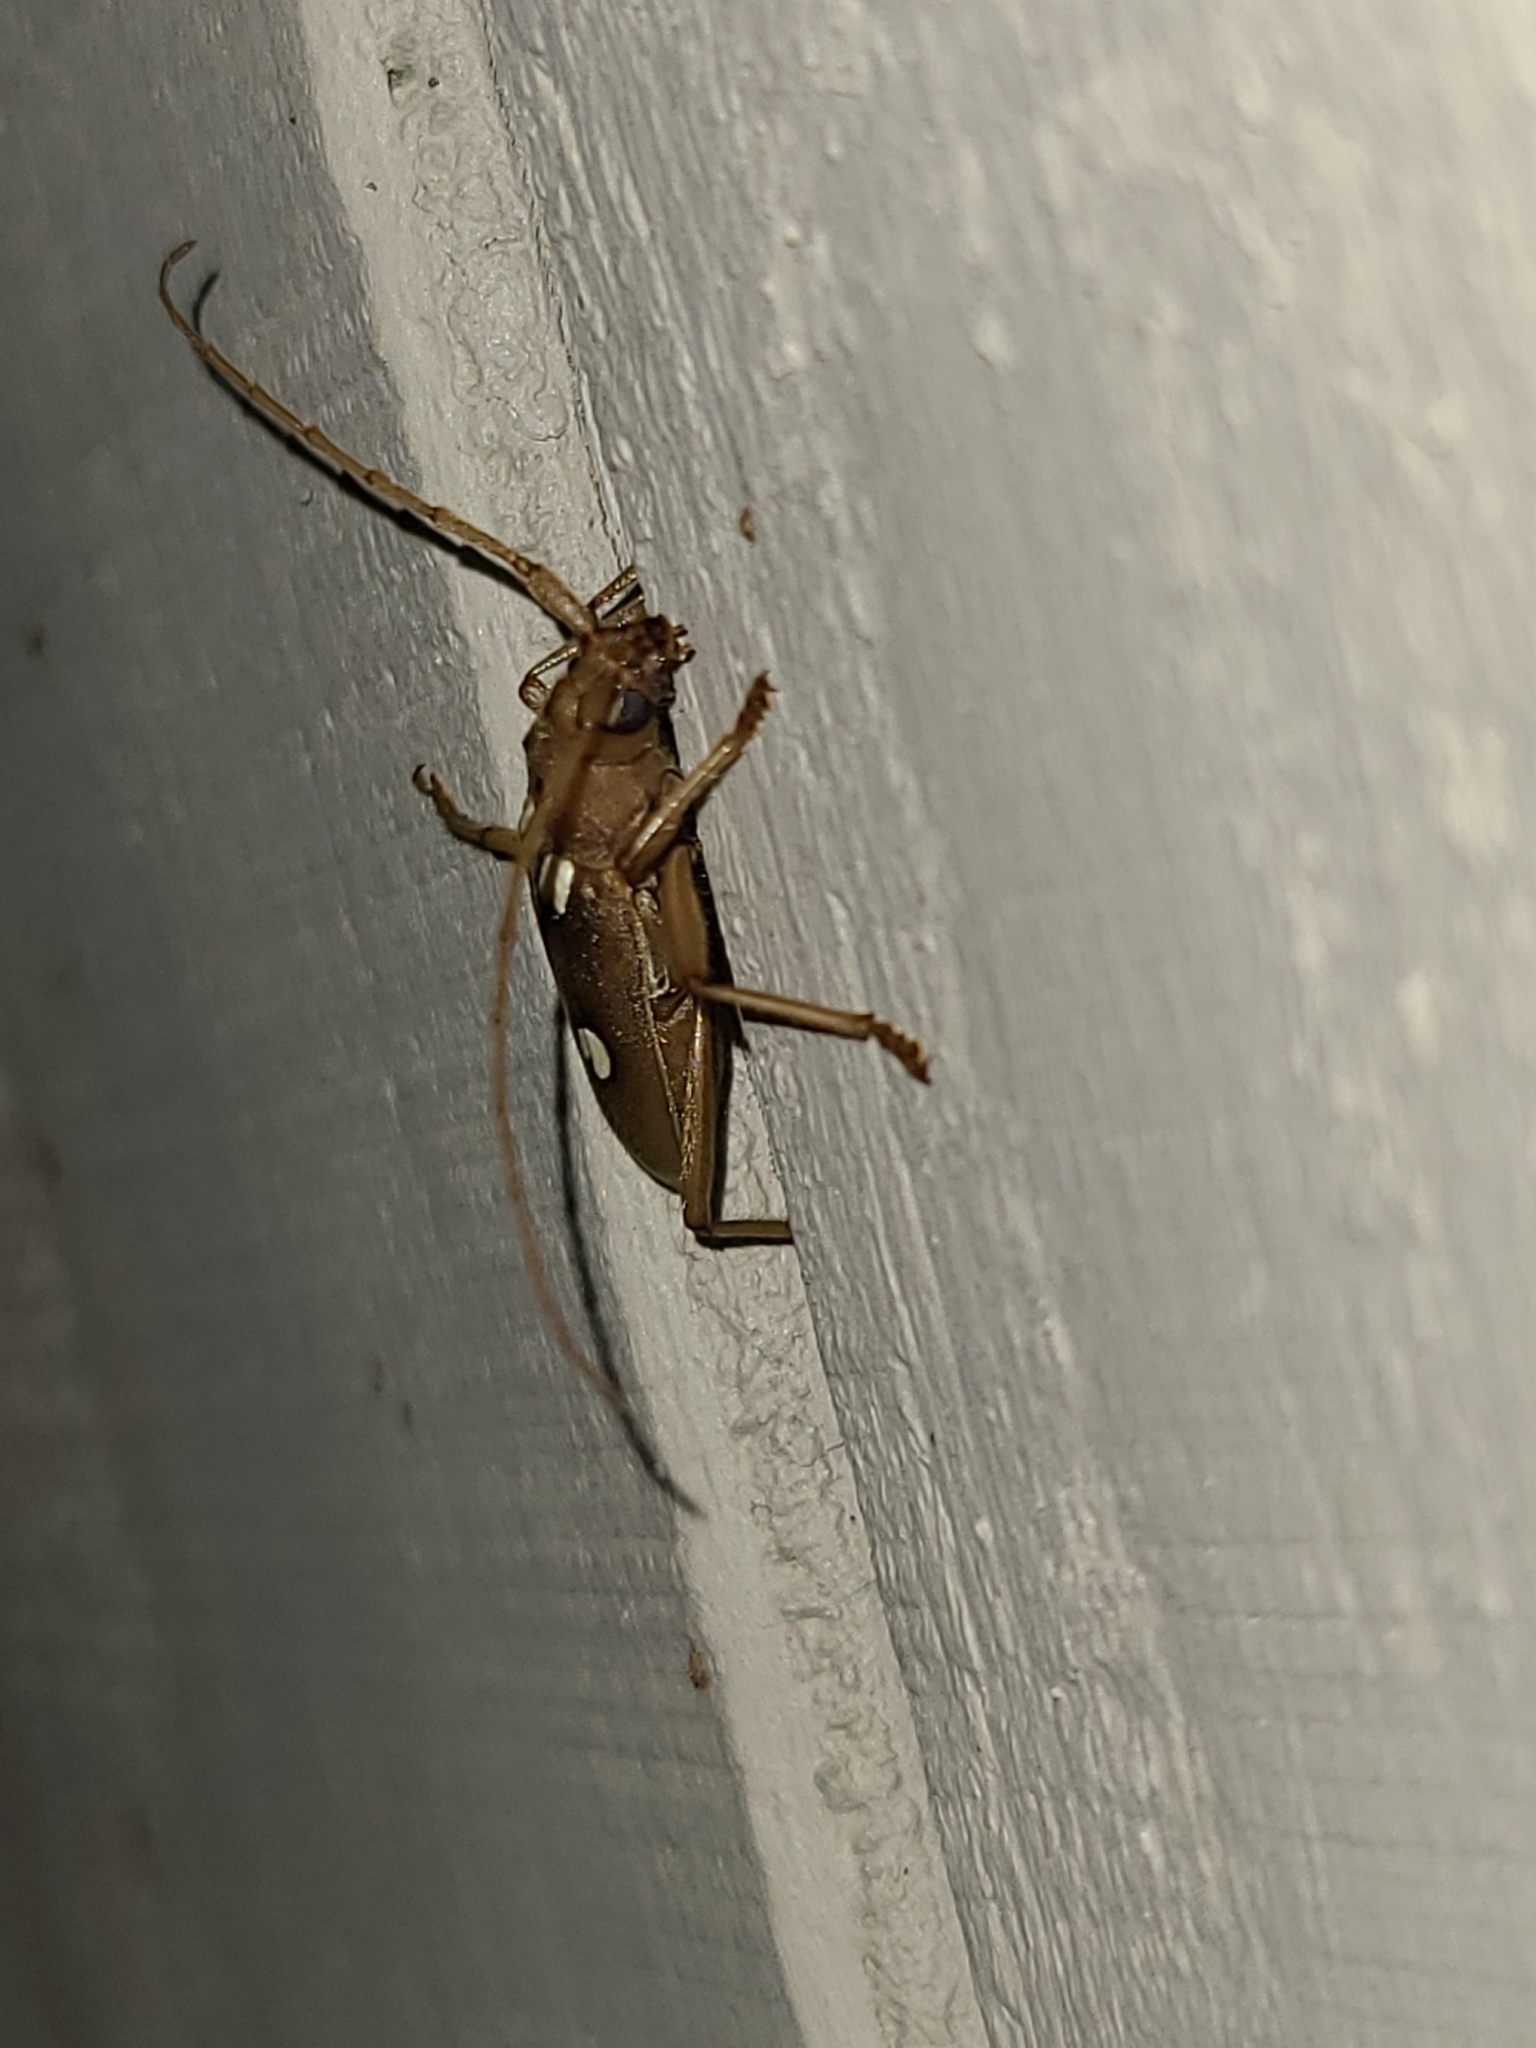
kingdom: Animalia
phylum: Arthropoda
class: Insecta
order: Coleoptera
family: Cerambycidae
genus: Eburia
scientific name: Eburia quadrigeminata
